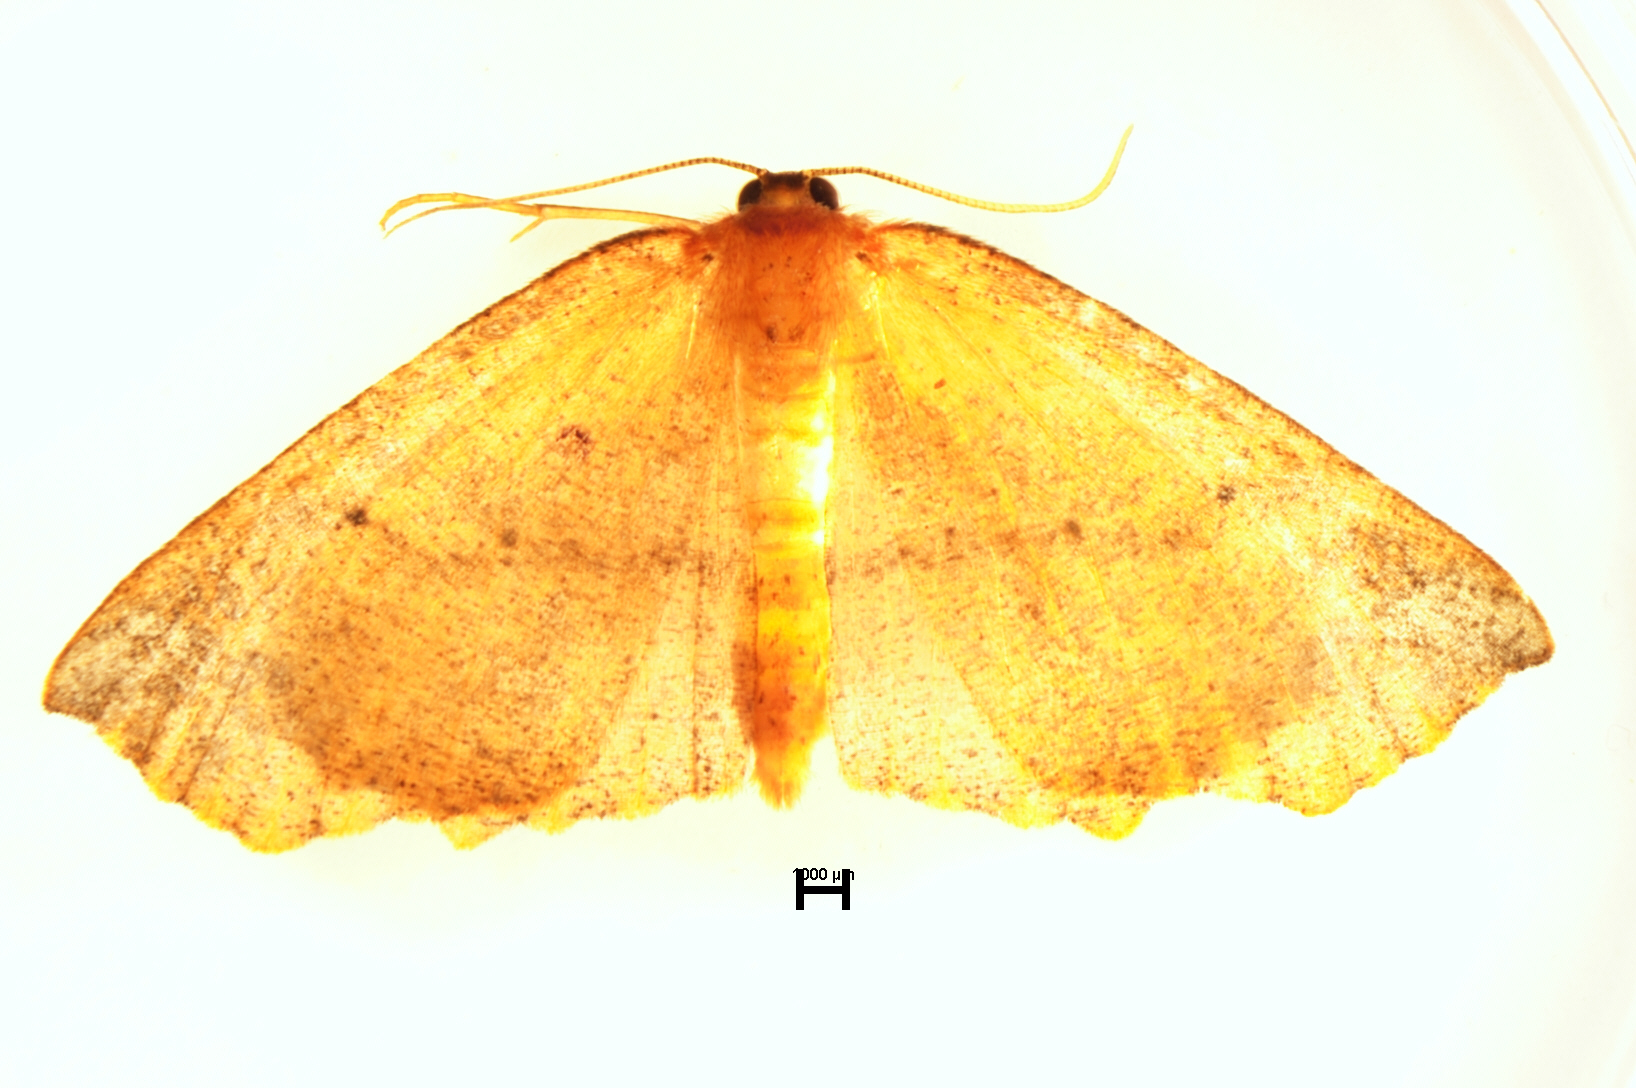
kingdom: Animalia
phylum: Arthropoda
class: Insecta
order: Lepidoptera
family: Geometridae
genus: Xyridacma
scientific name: Xyridacma ustaria
